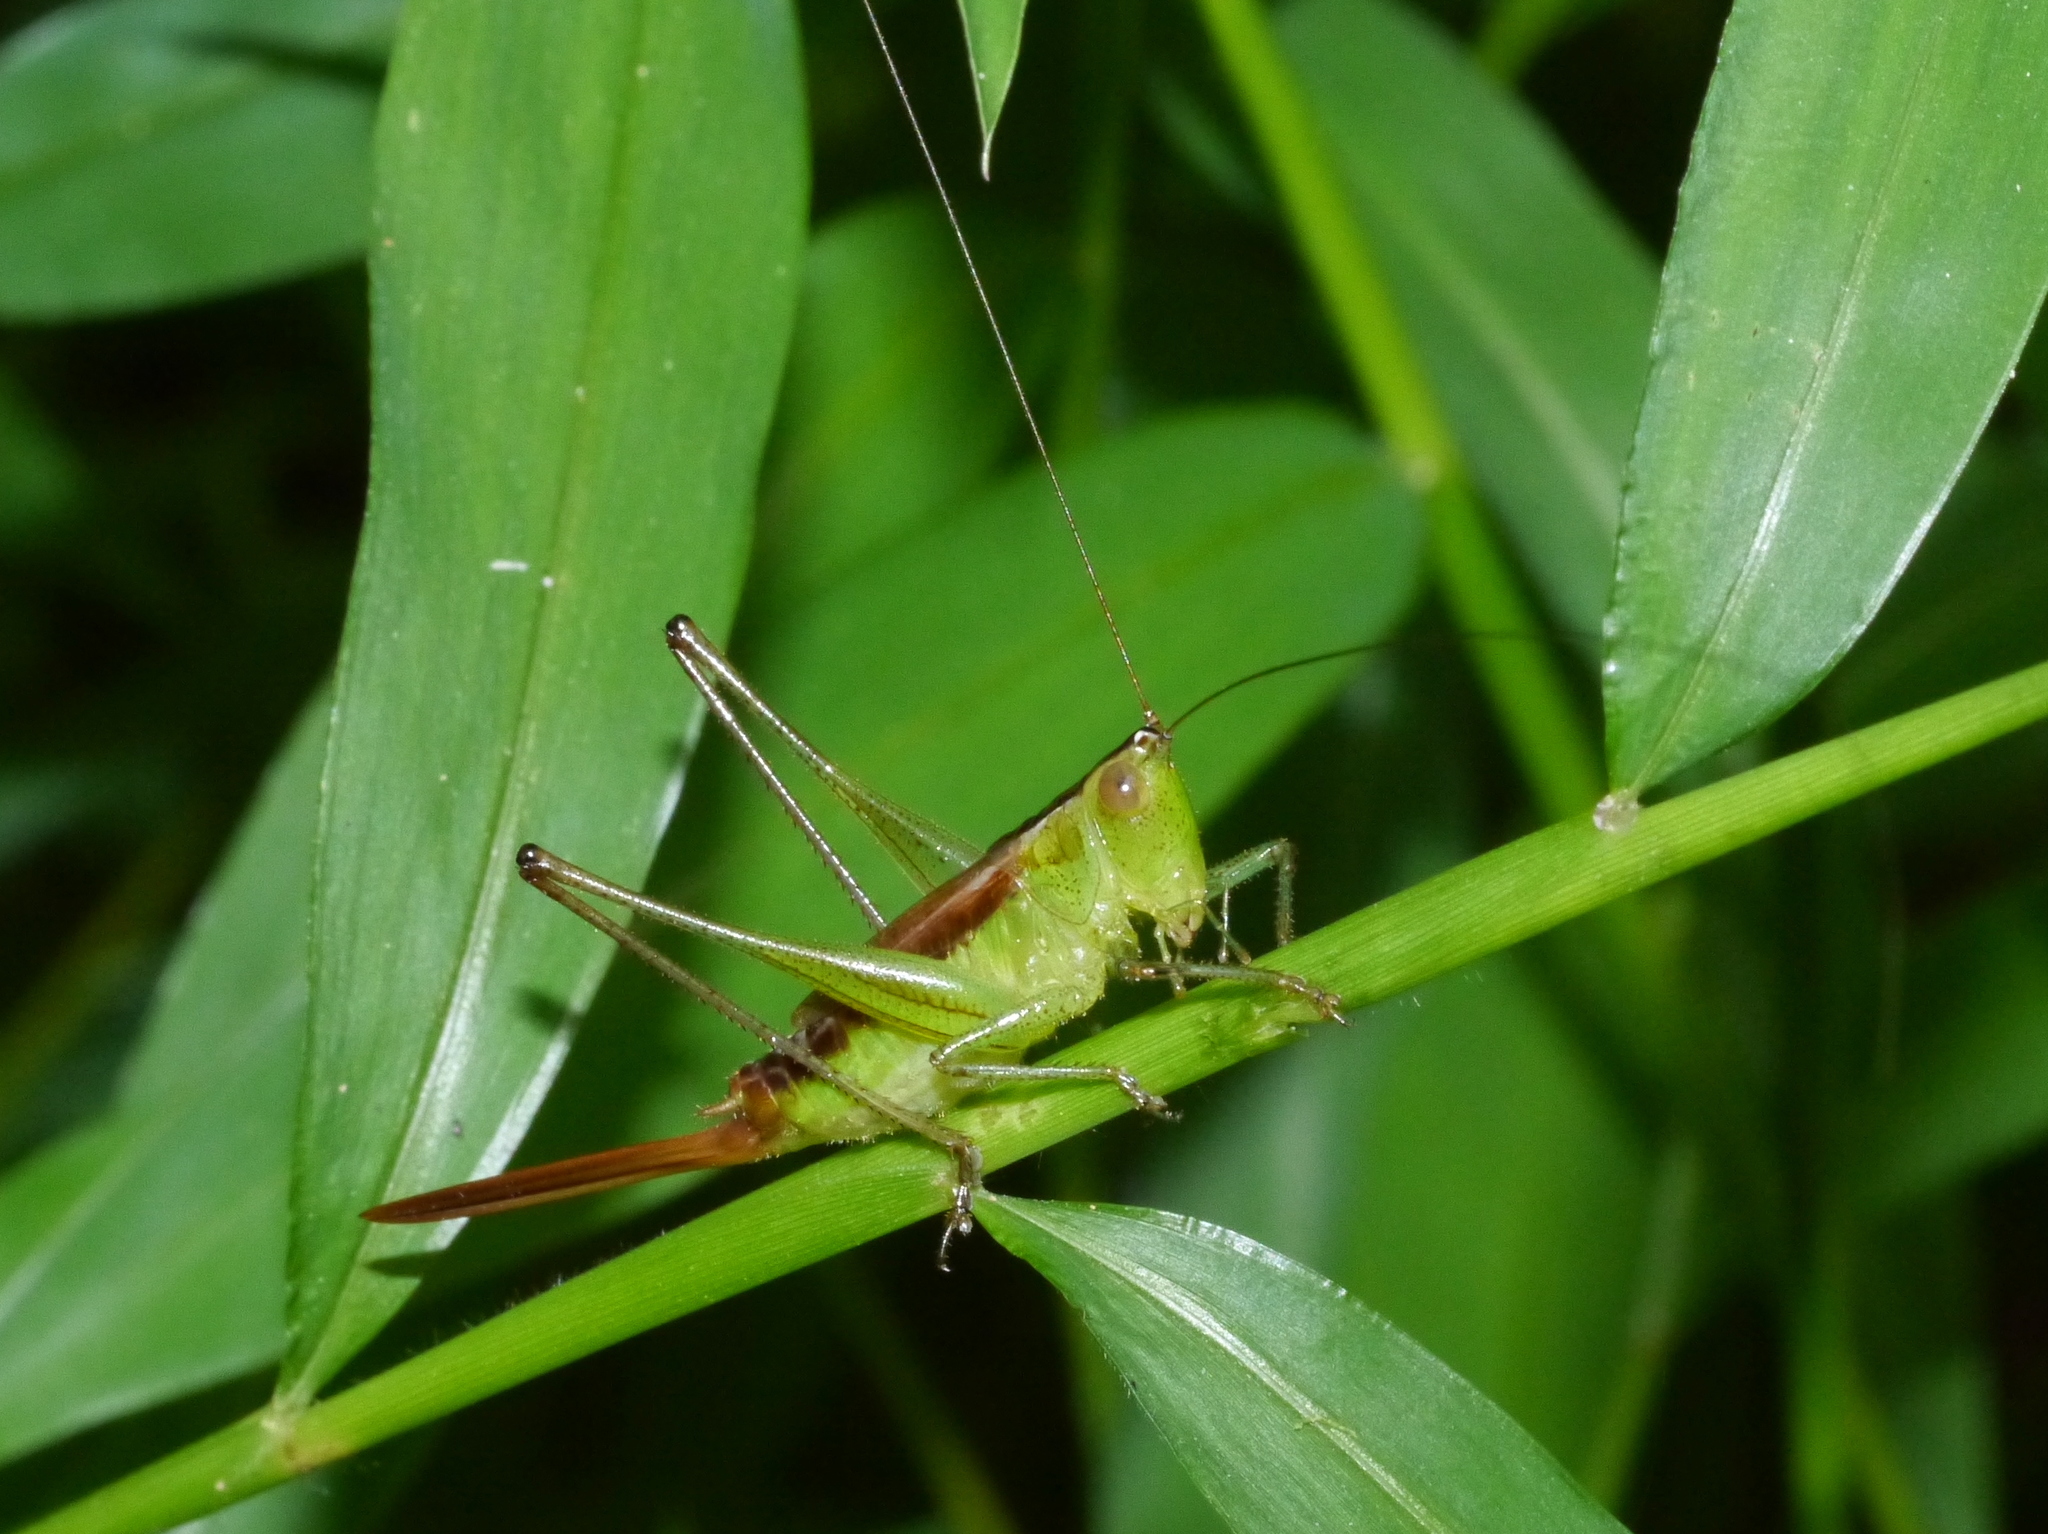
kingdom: Animalia
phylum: Arthropoda
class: Insecta
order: Orthoptera
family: Tettigoniidae
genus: Conocephalus
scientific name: Conocephalus brevipennis
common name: Short-winged meadow katydid
